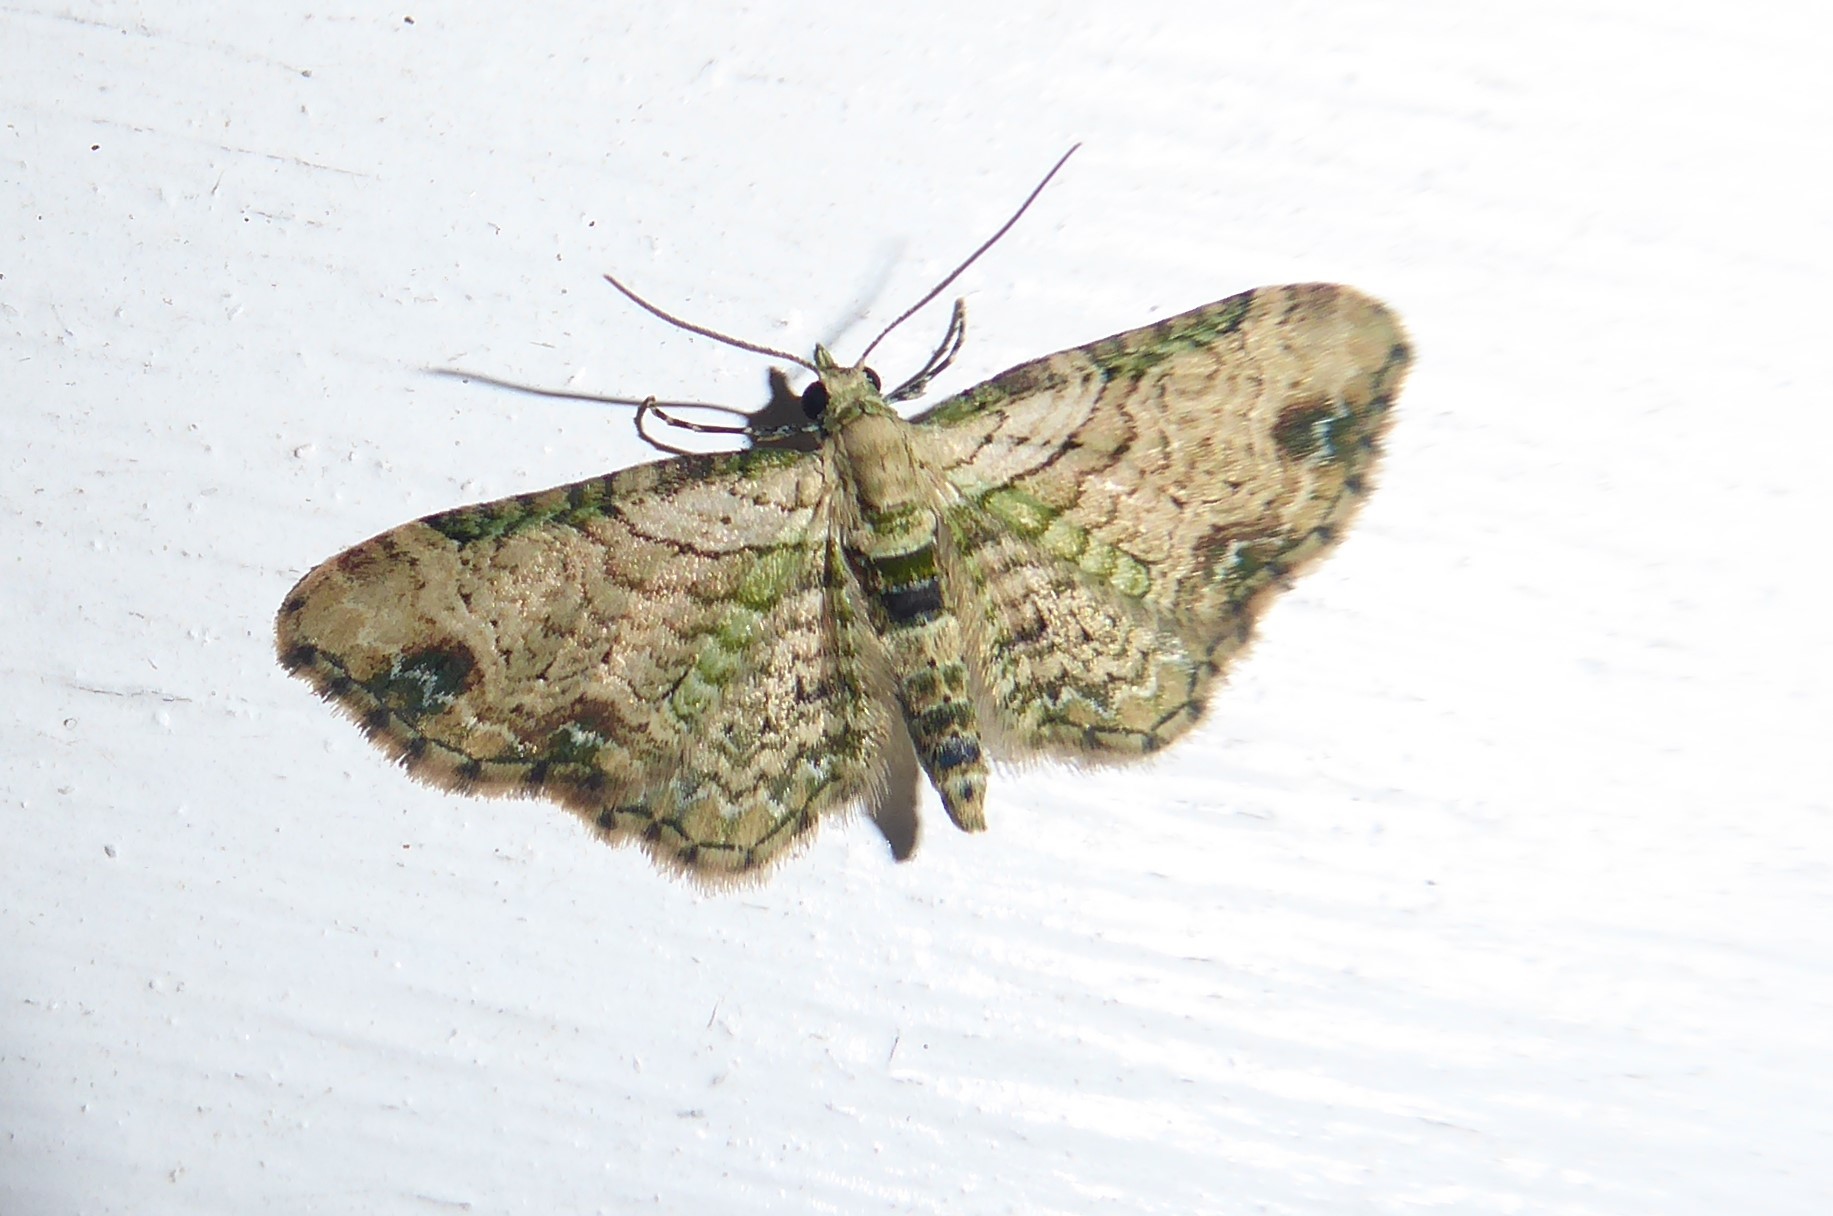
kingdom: Animalia
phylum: Arthropoda
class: Insecta
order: Lepidoptera
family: Geometridae
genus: Chloroclystis
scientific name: Chloroclystis
